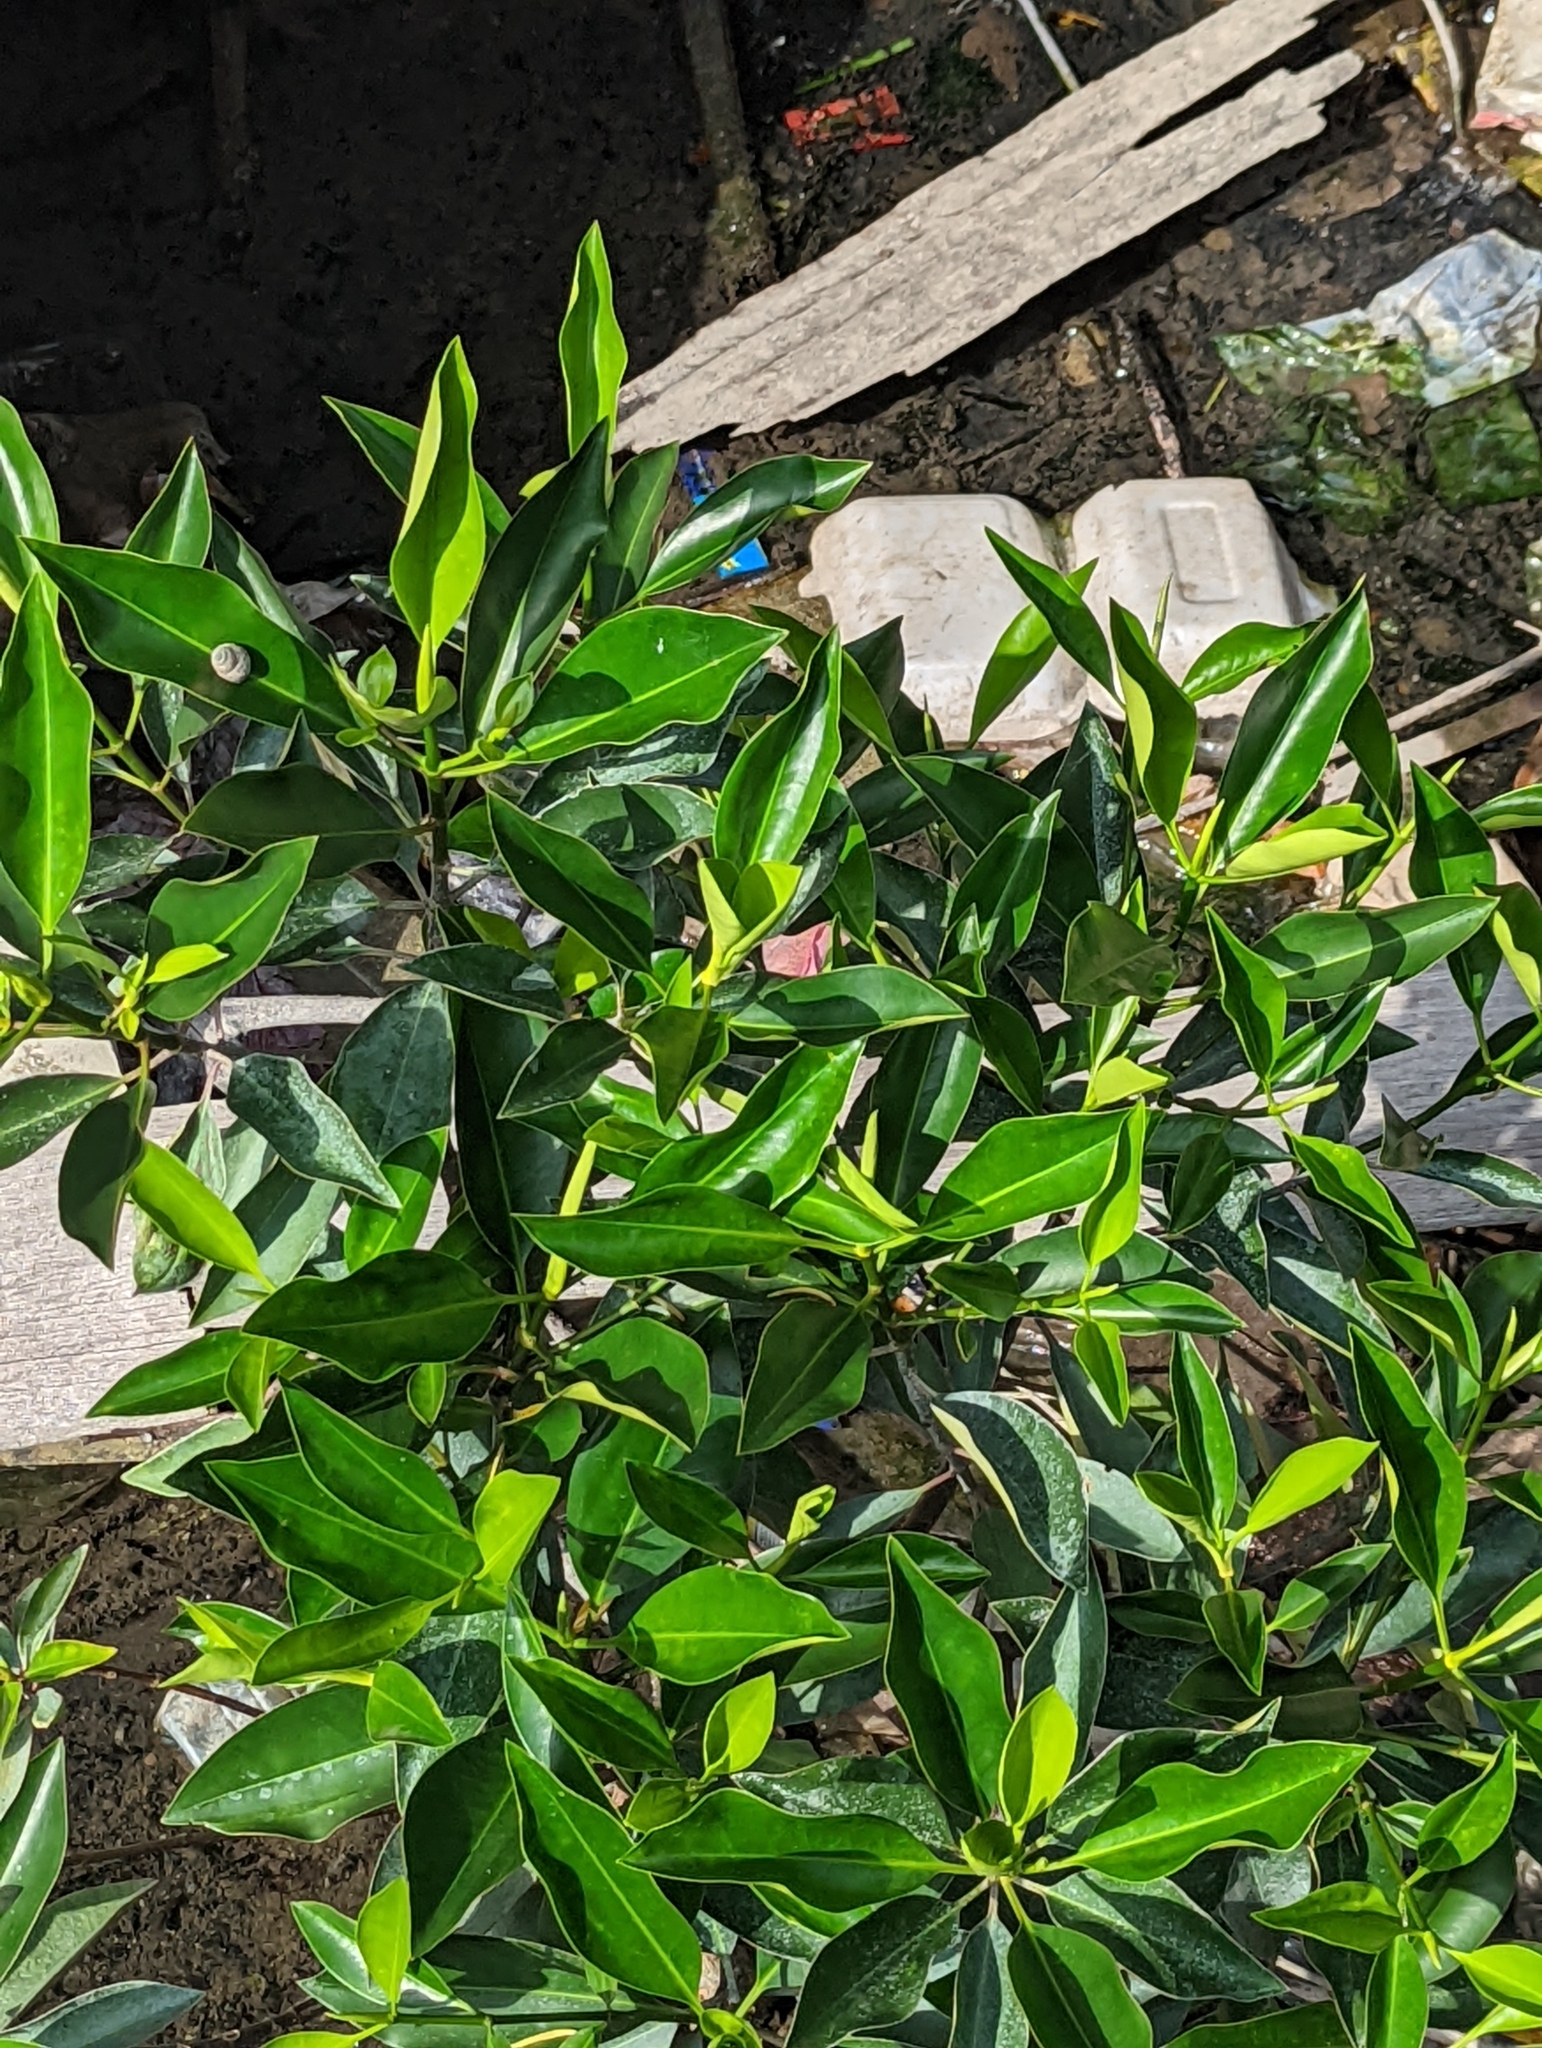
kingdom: Plantae
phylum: Tracheophyta
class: Magnoliopsida
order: Rosales
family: Moraceae
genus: Ficus
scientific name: Ficus microcarpa
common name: Chinese banyan
